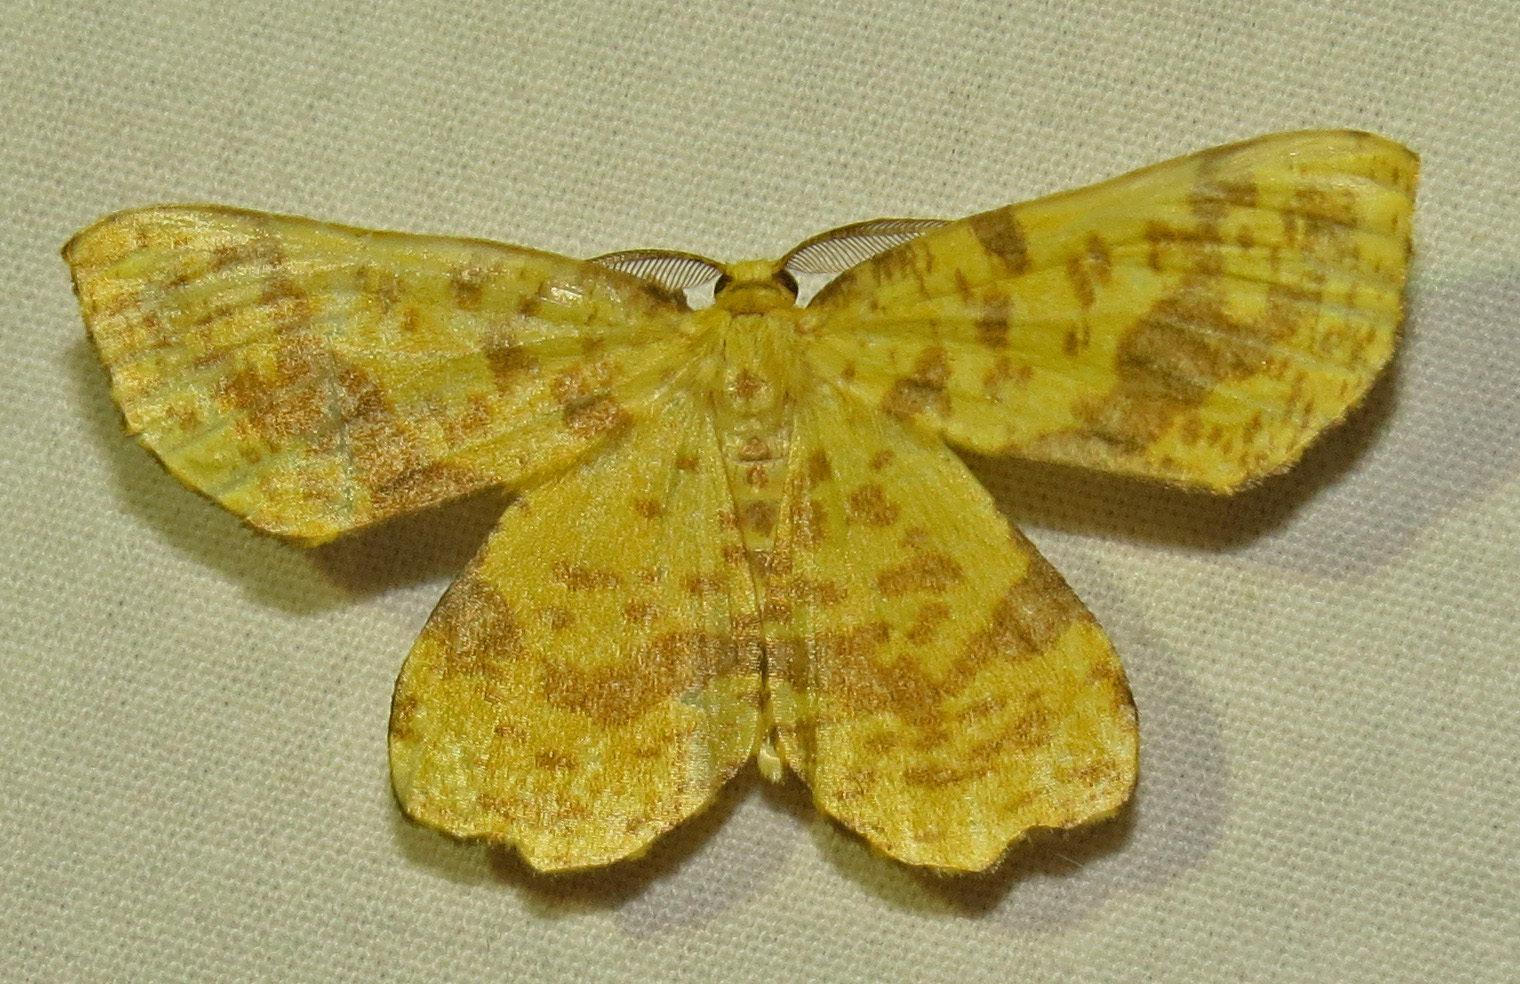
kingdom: Animalia
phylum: Arthropoda
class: Insecta
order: Lepidoptera
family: Geometridae
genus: Xanthotype
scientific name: Xanthotype
